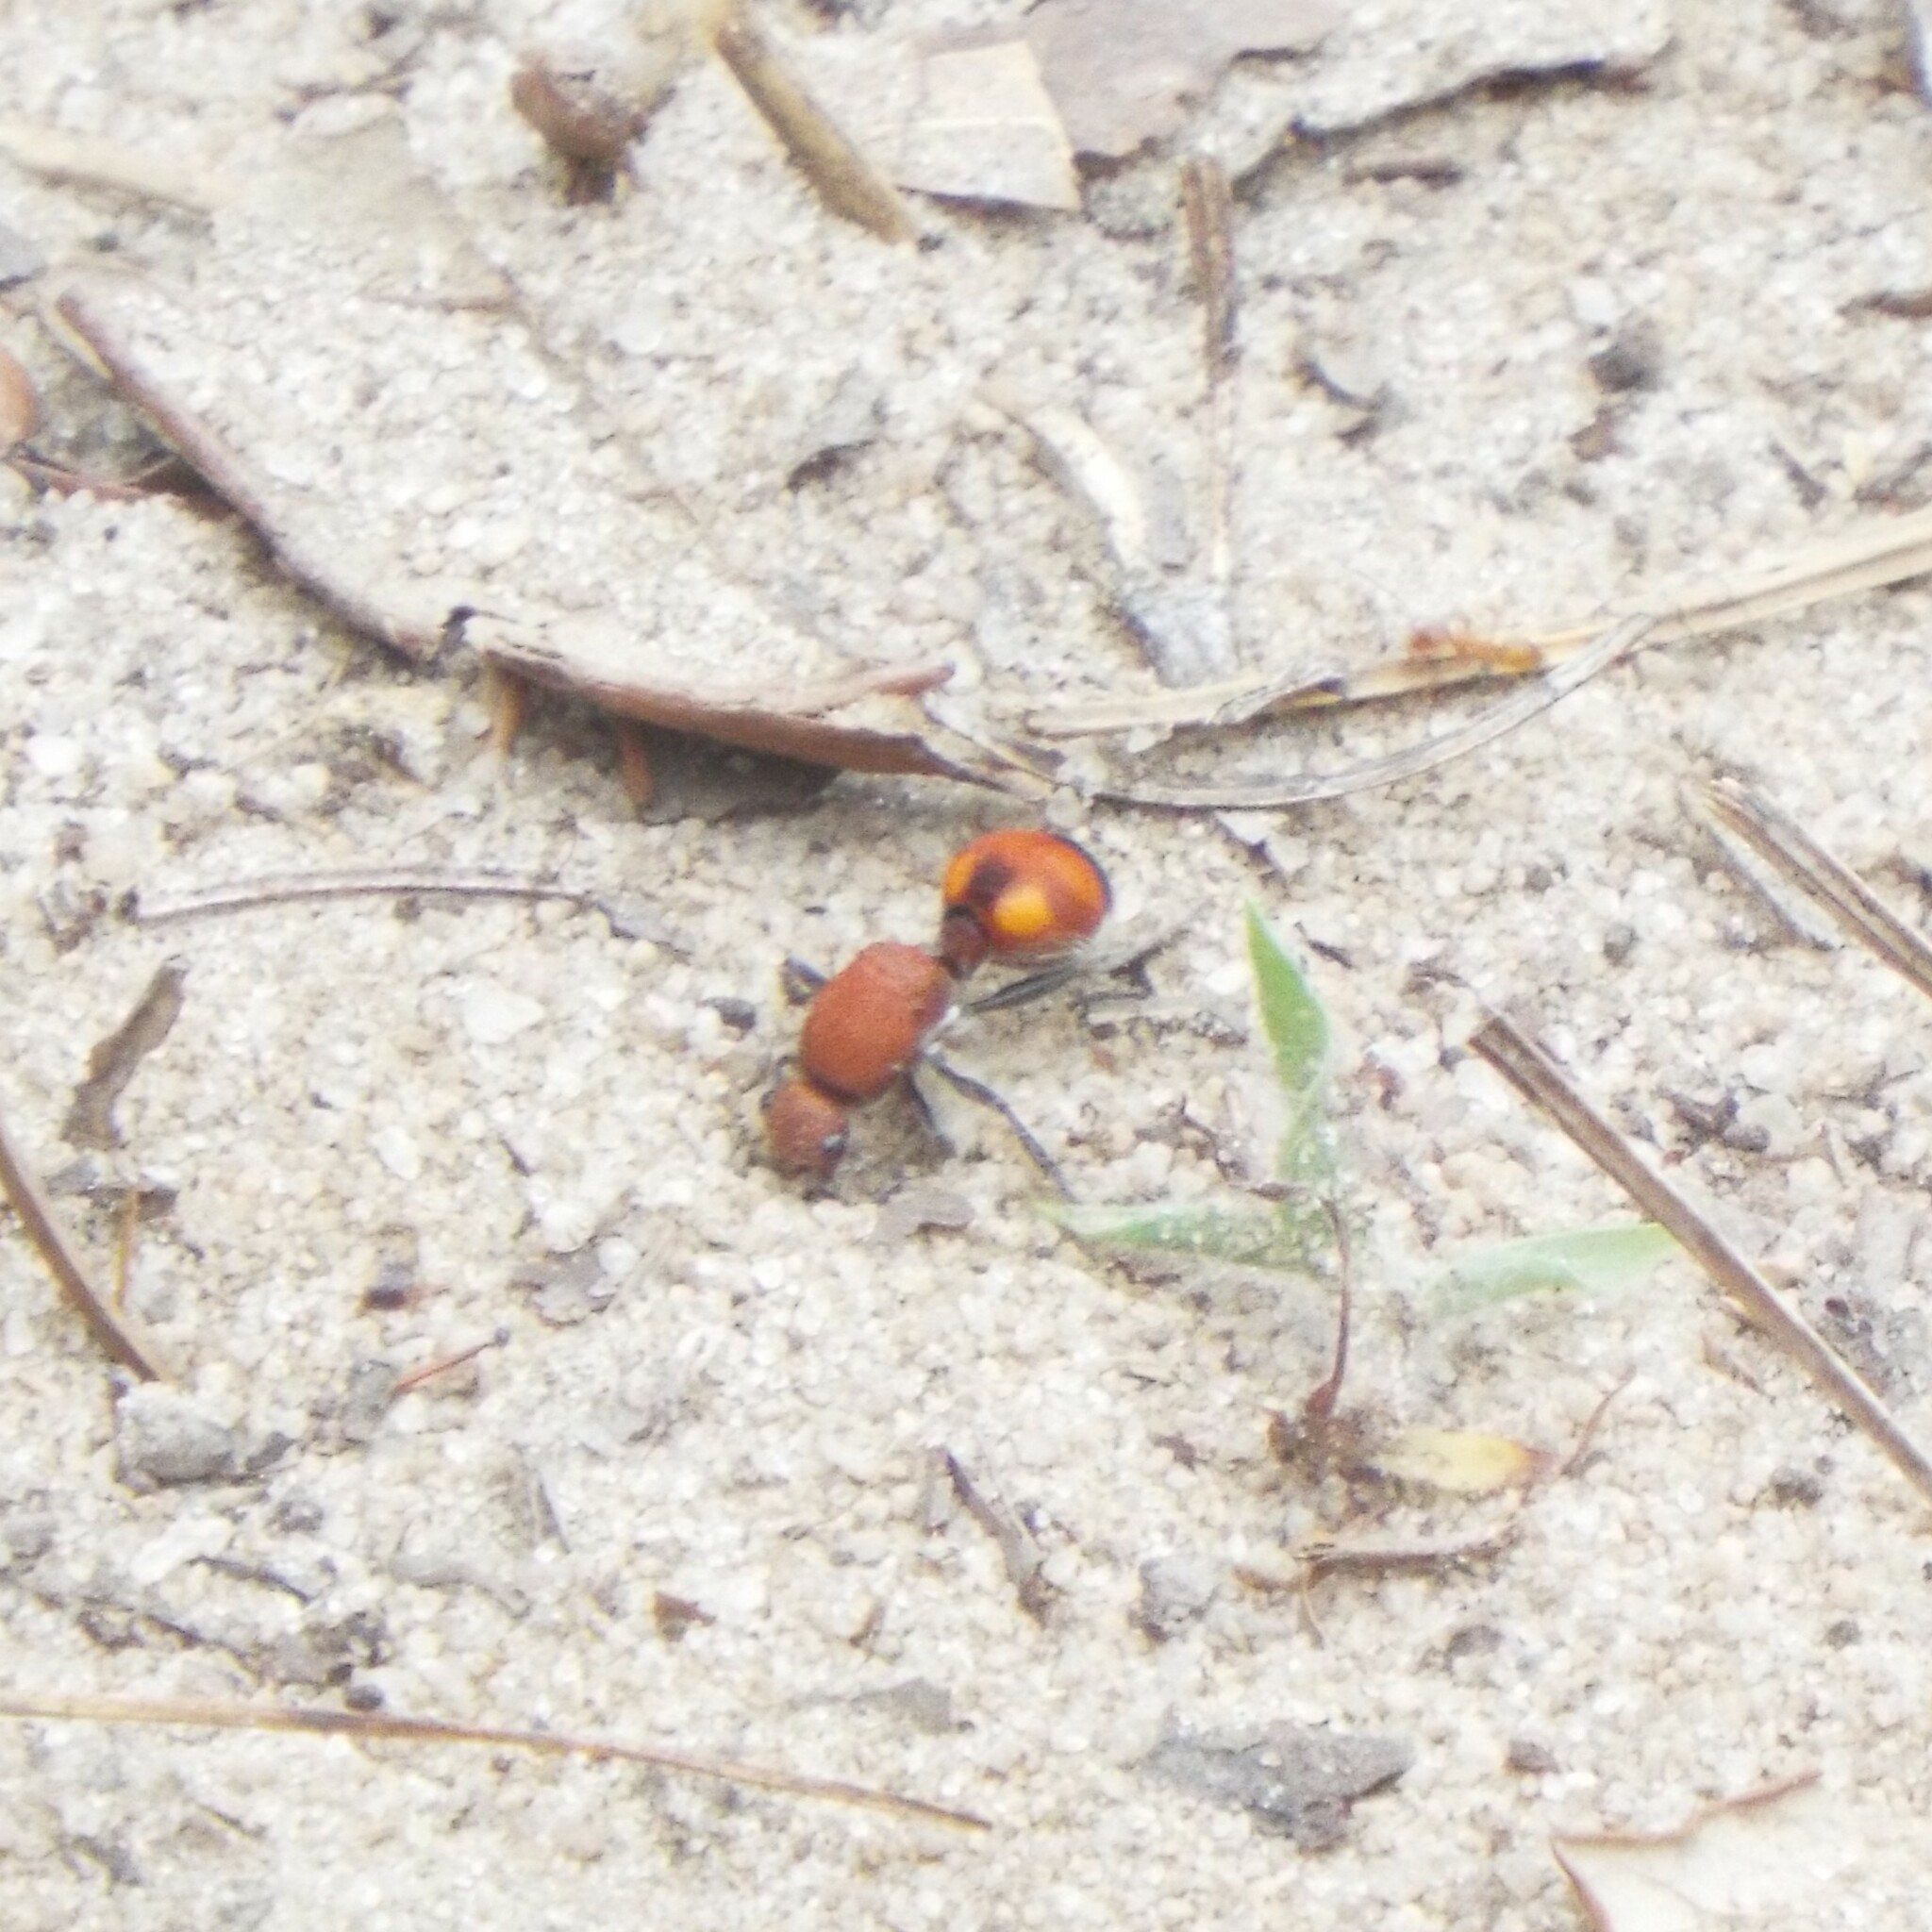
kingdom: Animalia
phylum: Arthropoda
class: Insecta
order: Hymenoptera
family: Mutillidae
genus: Dasymutilla
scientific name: Dasymutilla
